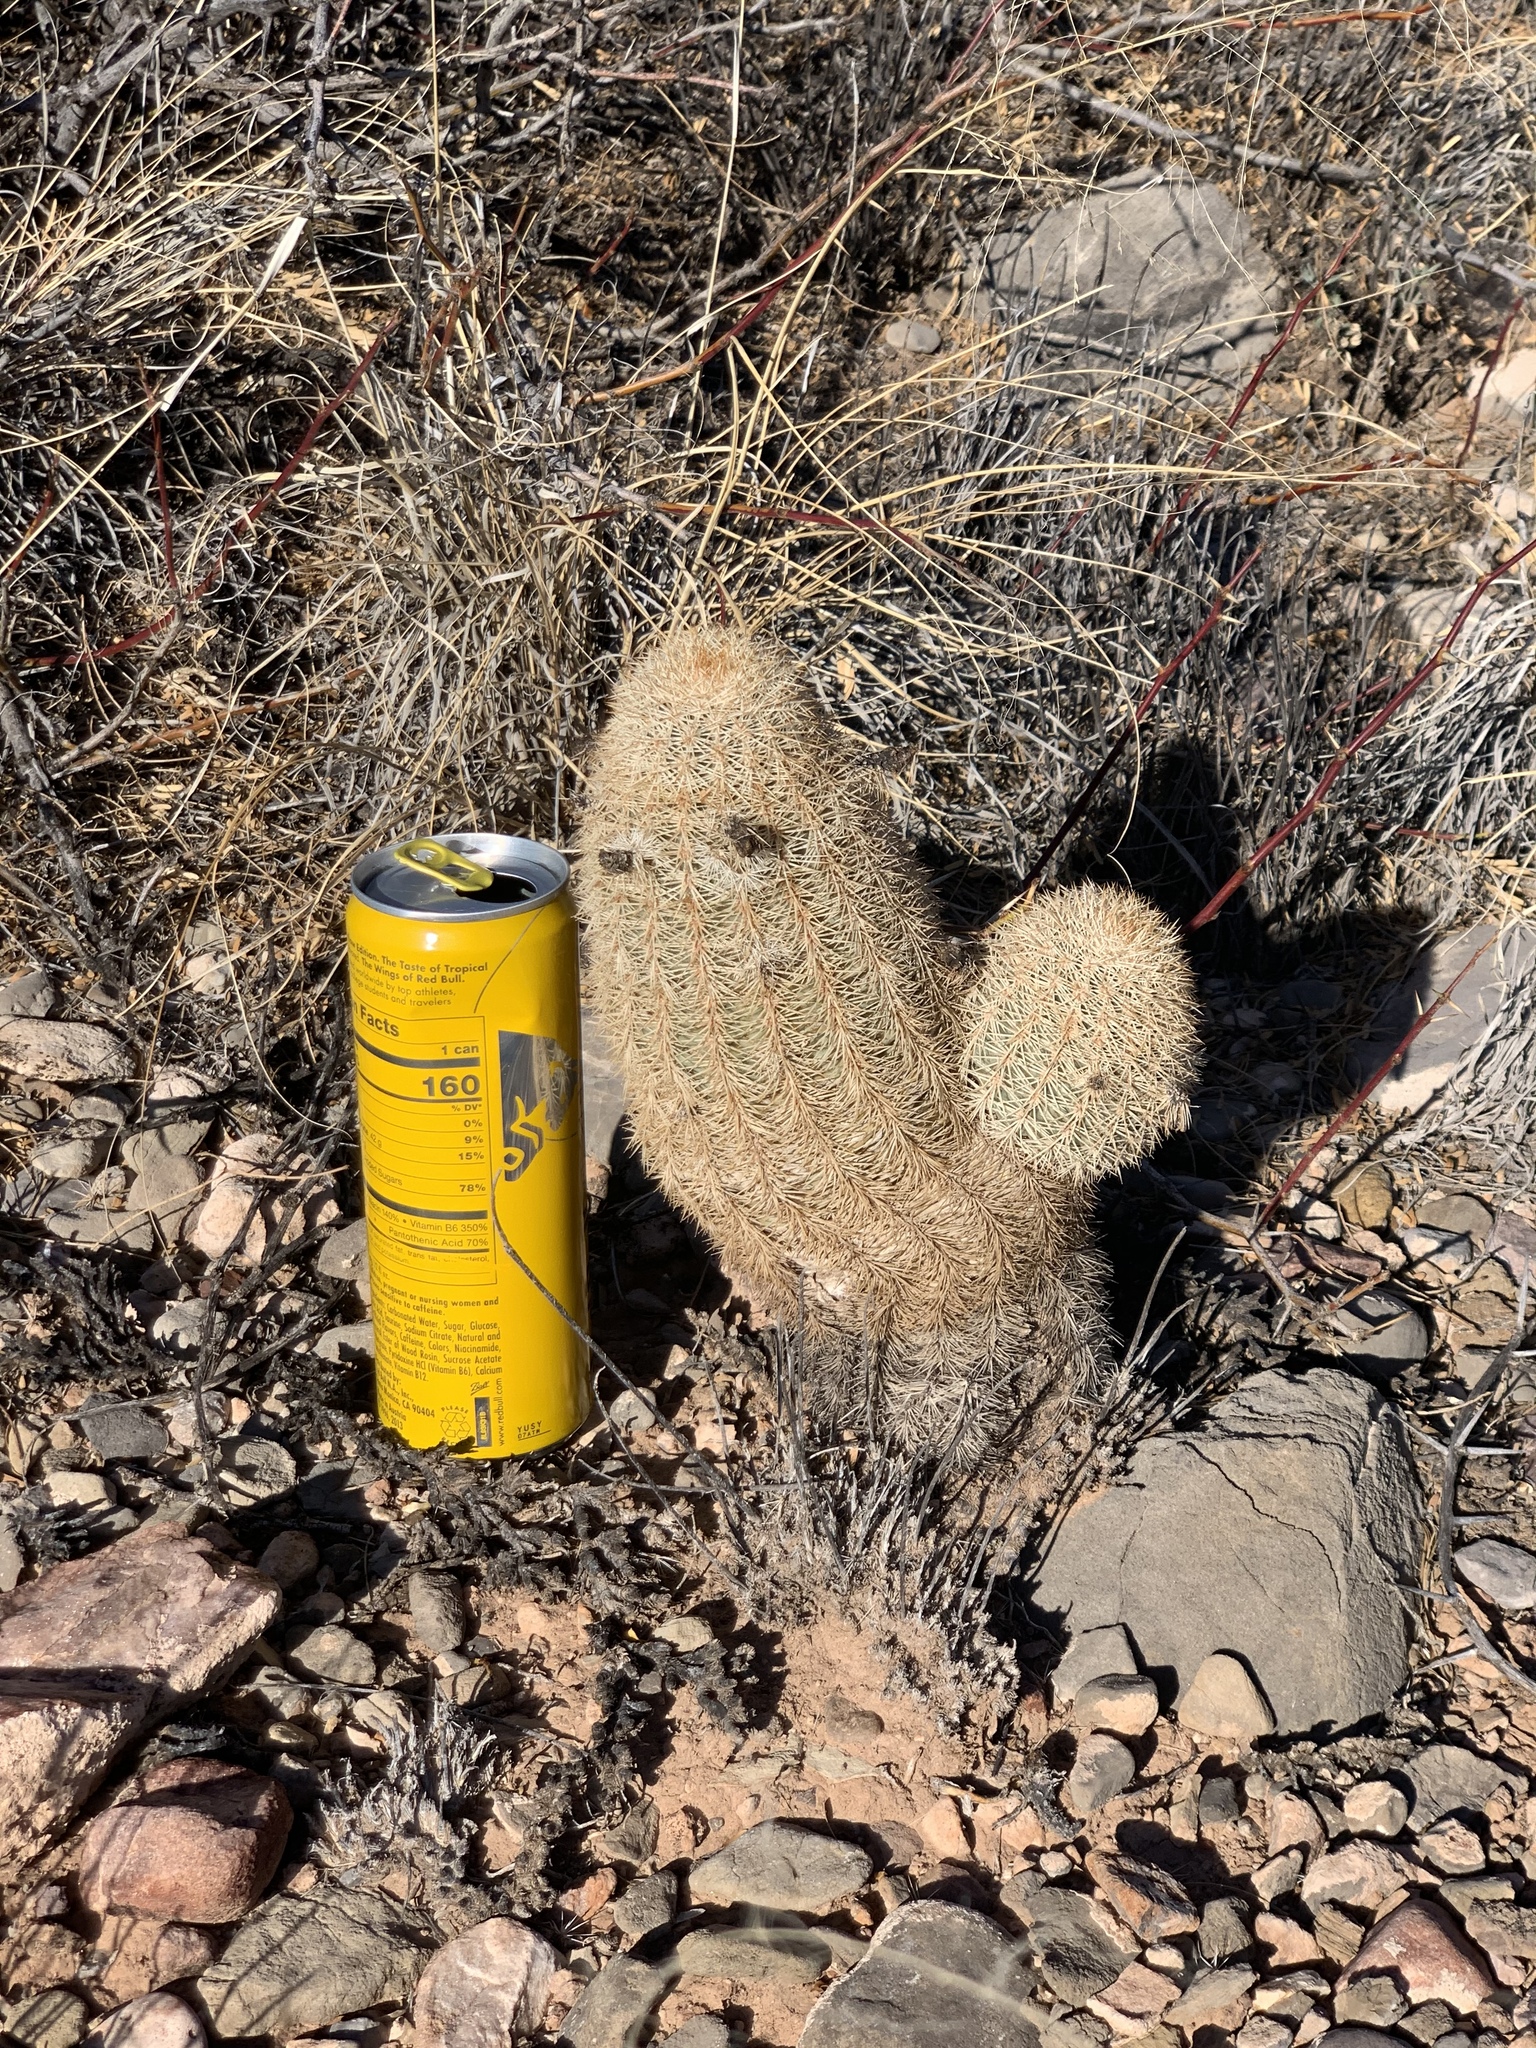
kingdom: Plantae
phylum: Tracheophyta
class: Magnoliopsida
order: Caryophyllales
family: Cactaceae
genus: Echinocereus
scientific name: Echinocereus dasyacanthus
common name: Spiny hedgehog cactus
